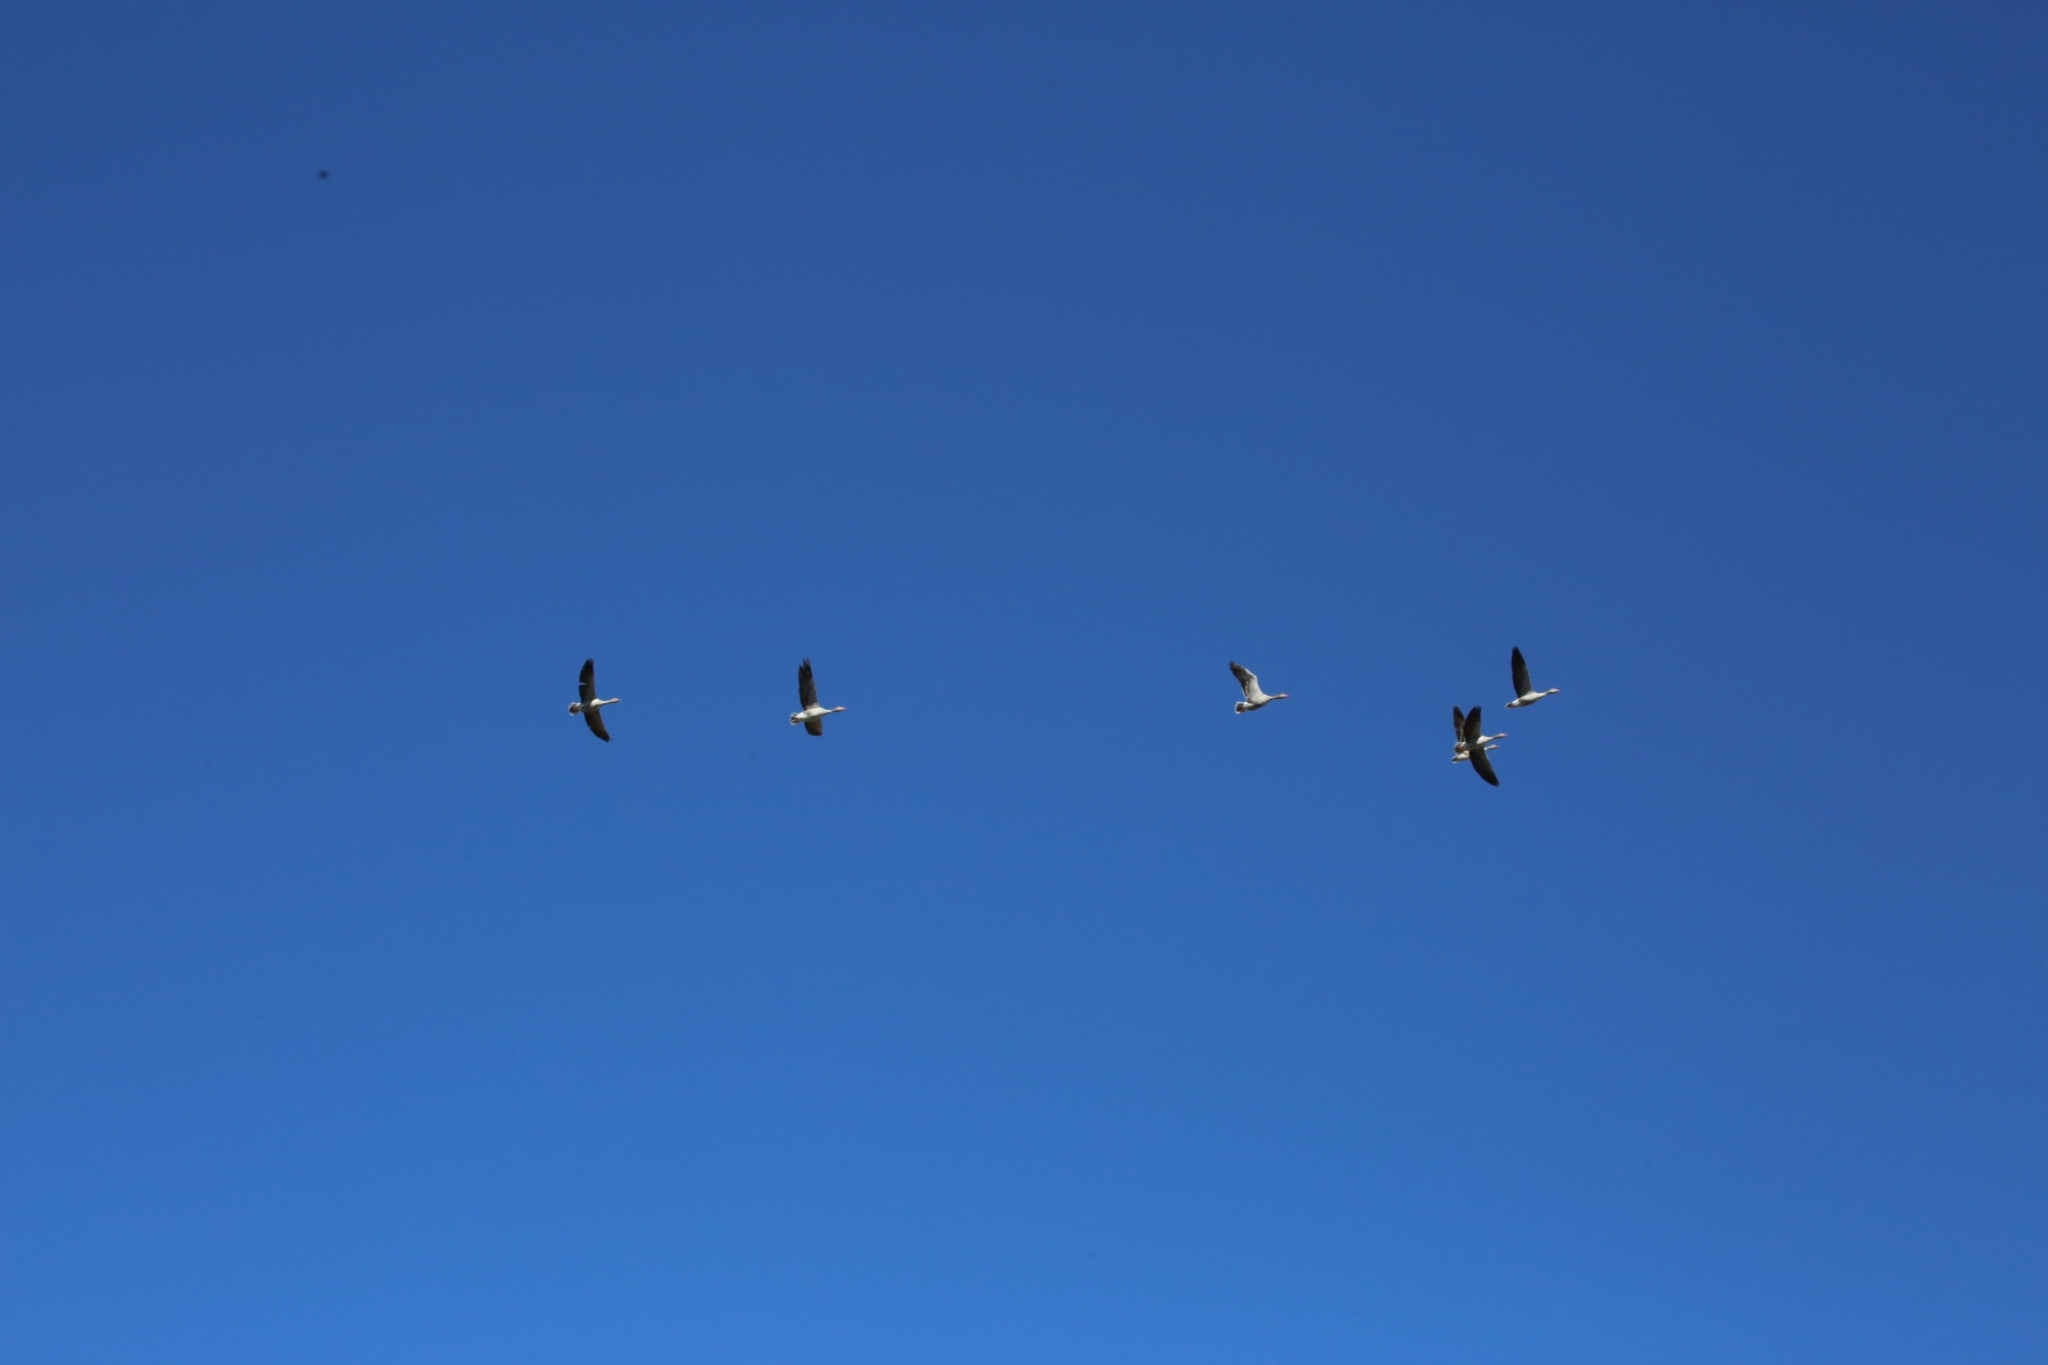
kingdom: Animalia
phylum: Chordata
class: Aves
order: Anseriformes
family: Anatidae
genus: Anser
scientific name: Anser anser
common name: Greylag goose
